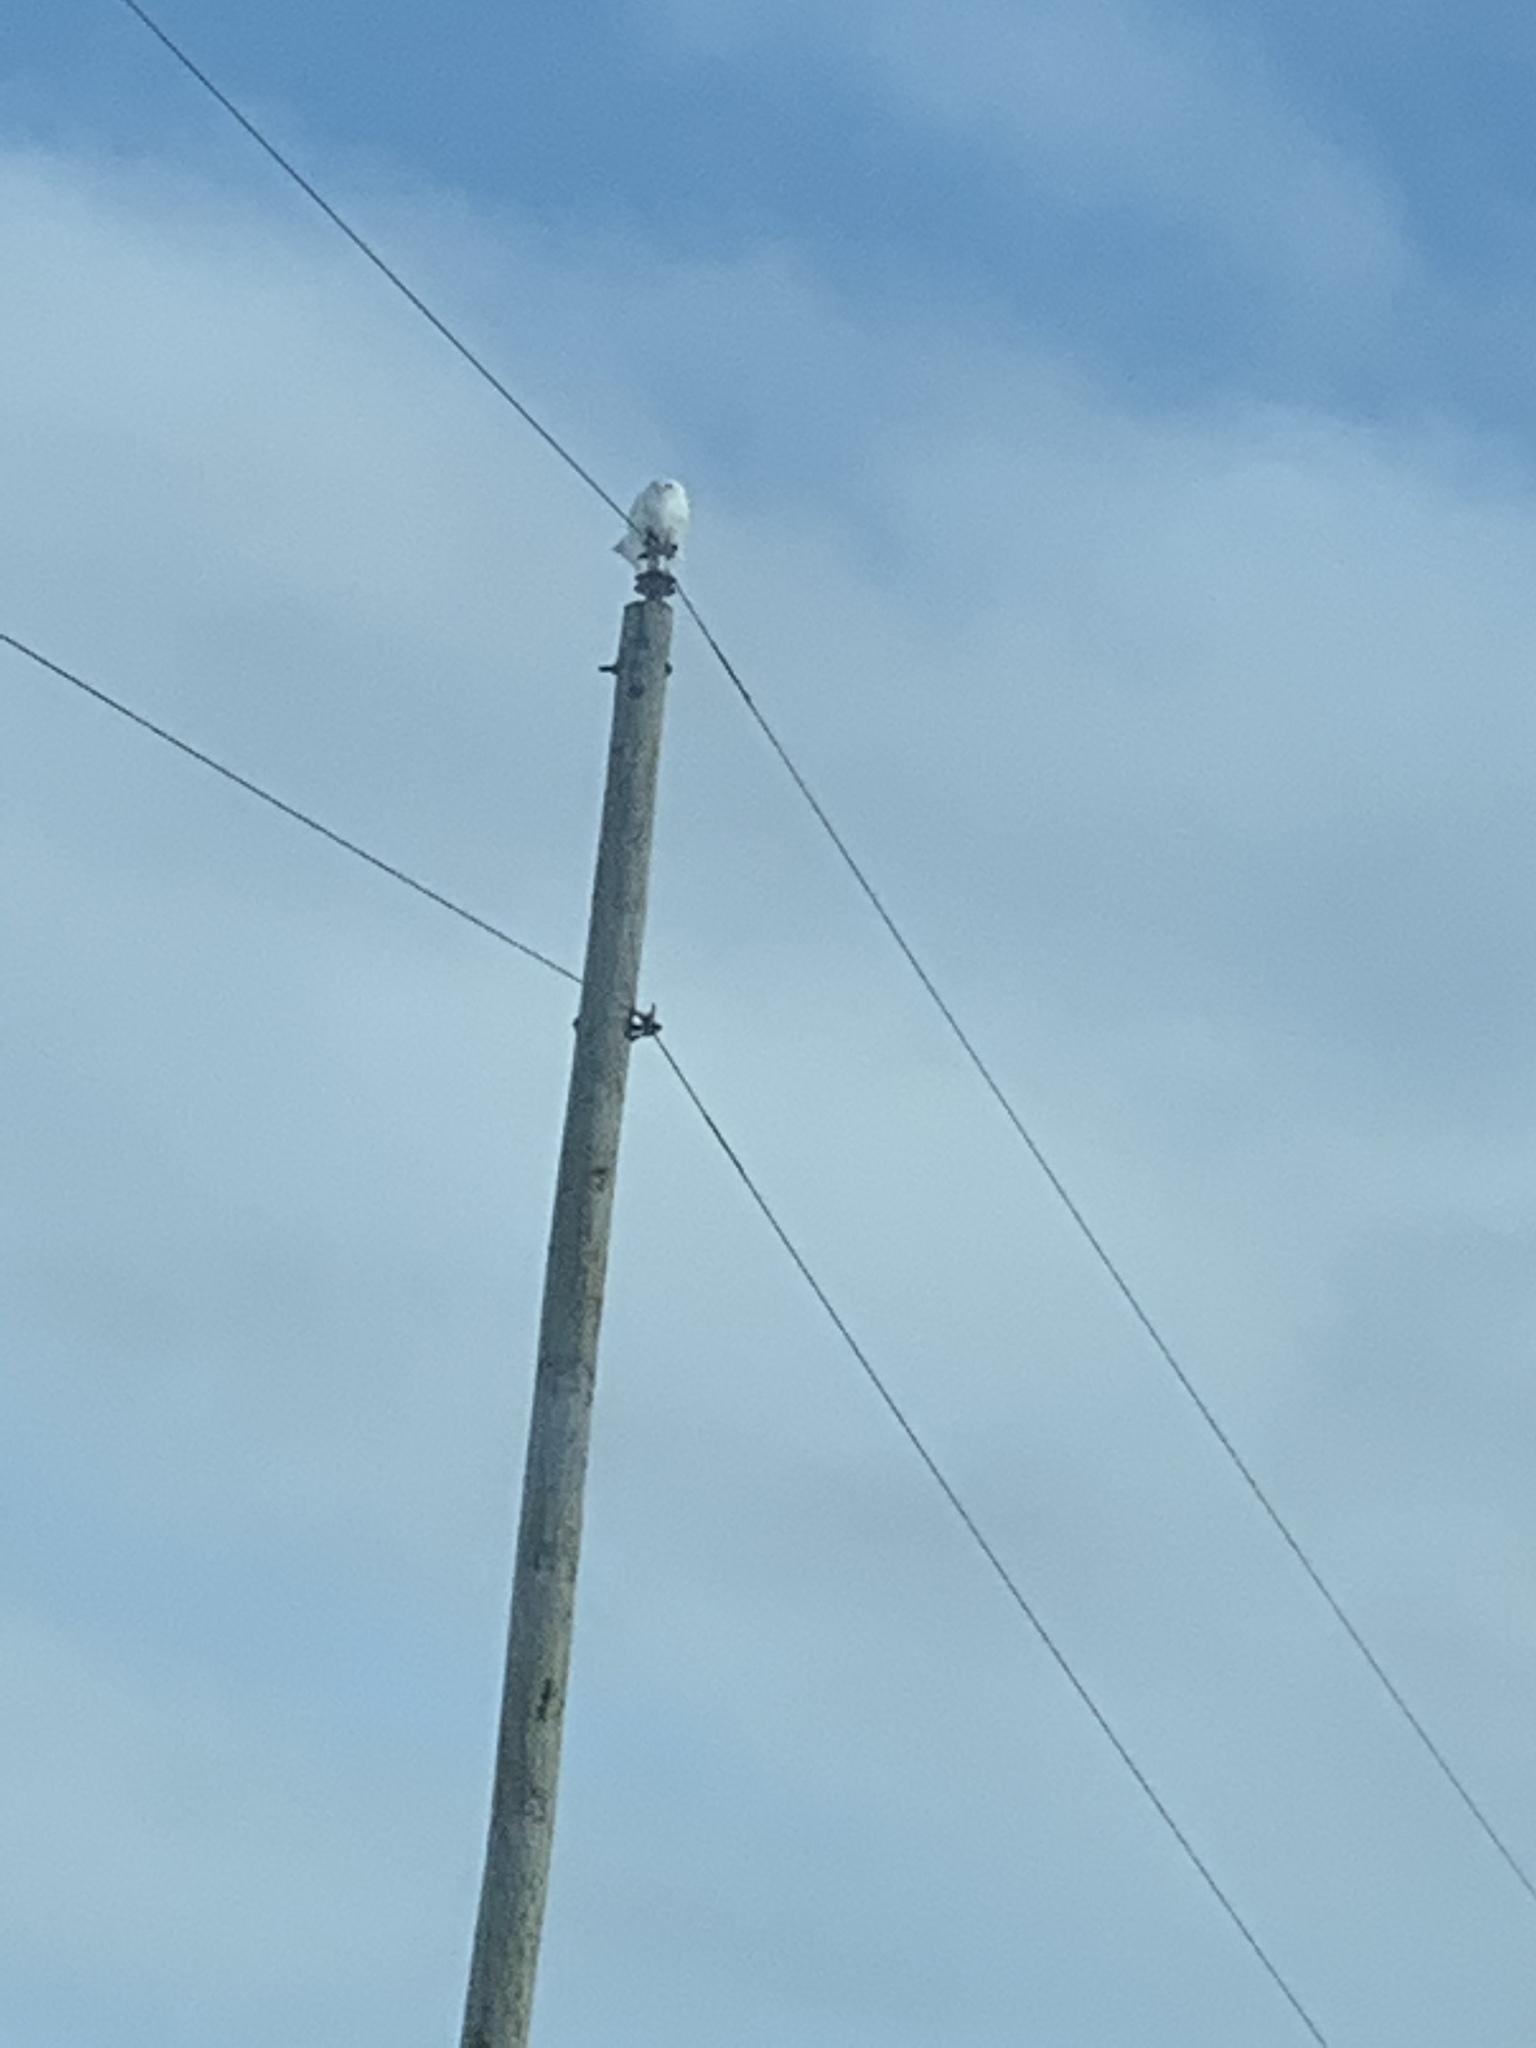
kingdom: Animalia
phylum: Chordata
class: Aves
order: Strigiformes
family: Strigidae
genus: Bubo
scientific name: Bubo scandiacus
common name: Snowy owl
